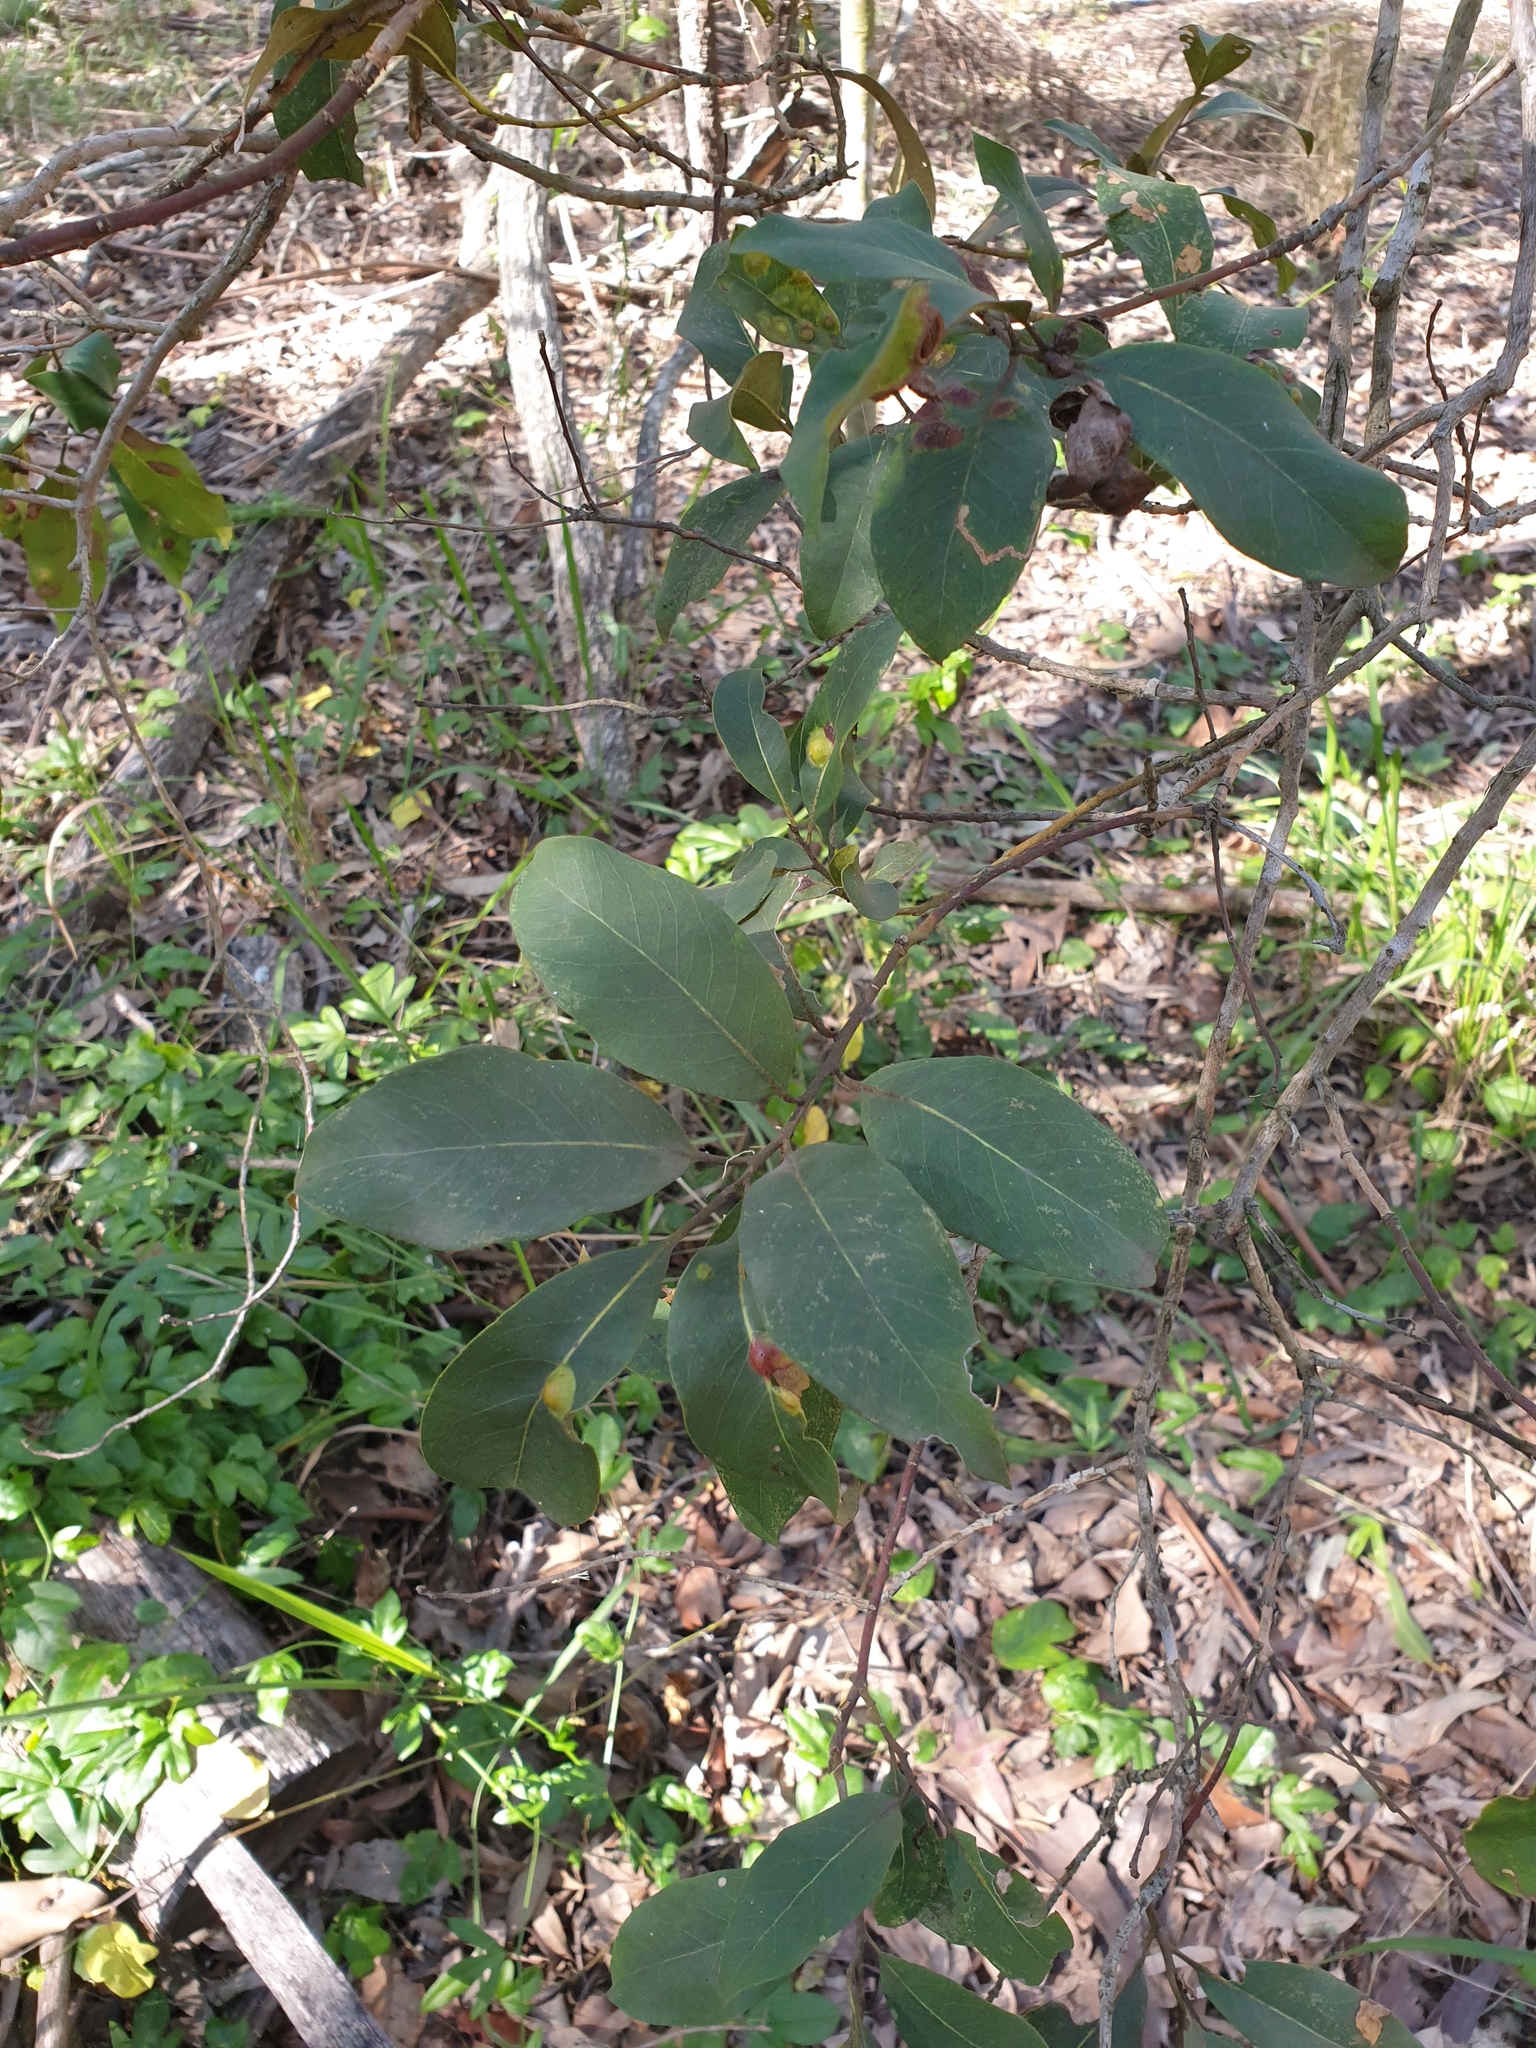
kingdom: Plantae
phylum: Tracheophyta
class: Magnoliopsida
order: Myrtales
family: Myrtaceae
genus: Lophostemon
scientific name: Lophostemon suaveolens
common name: Paperbark-mahogany
